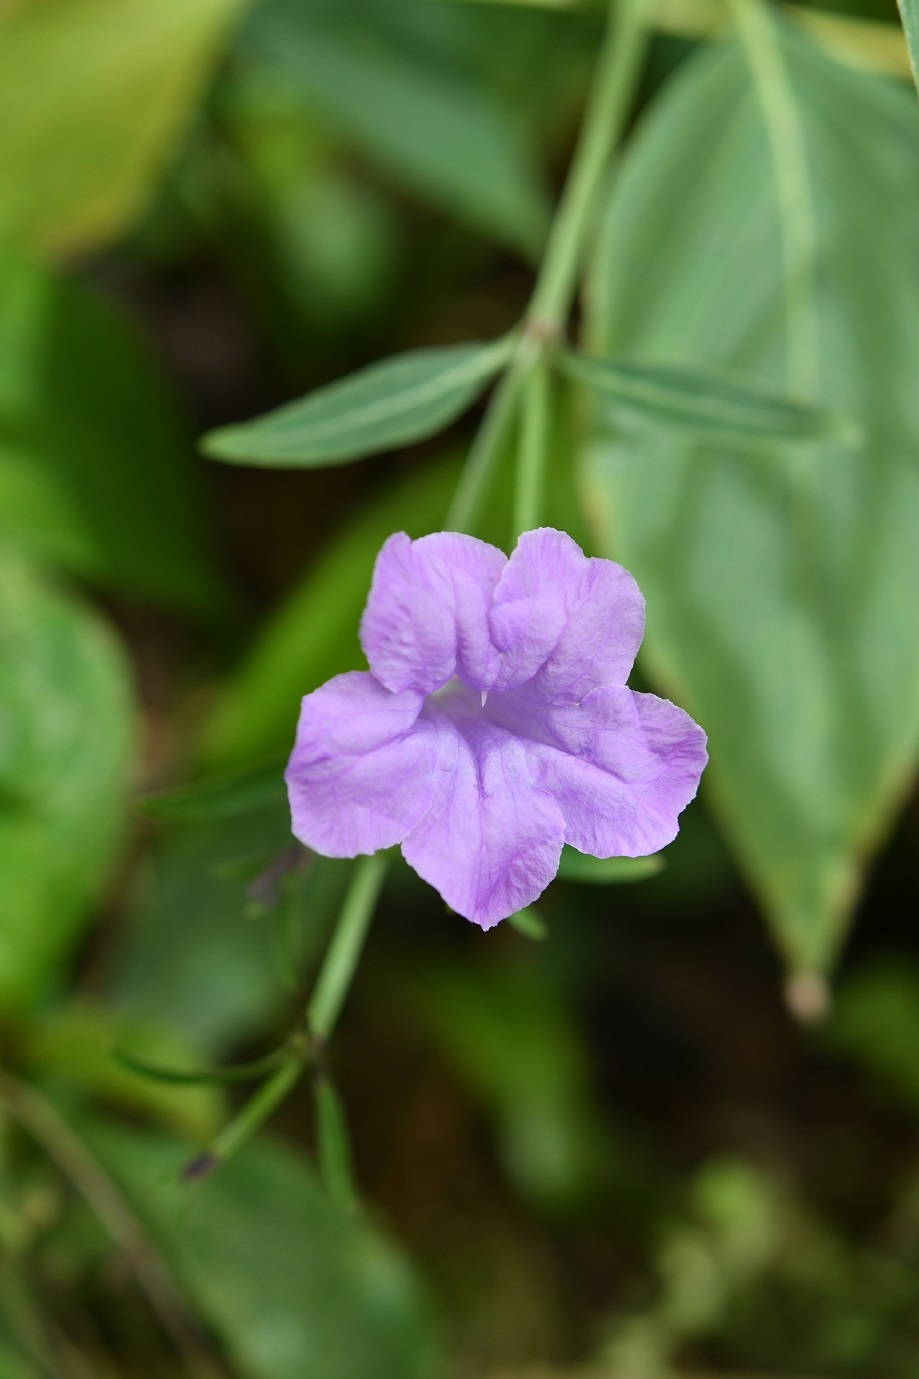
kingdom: Plantae
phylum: Tracheophyta
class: Magnoliopsida
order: Lamiales
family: Acanthaceae
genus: Ruellia
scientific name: Ruellia breedlovei
